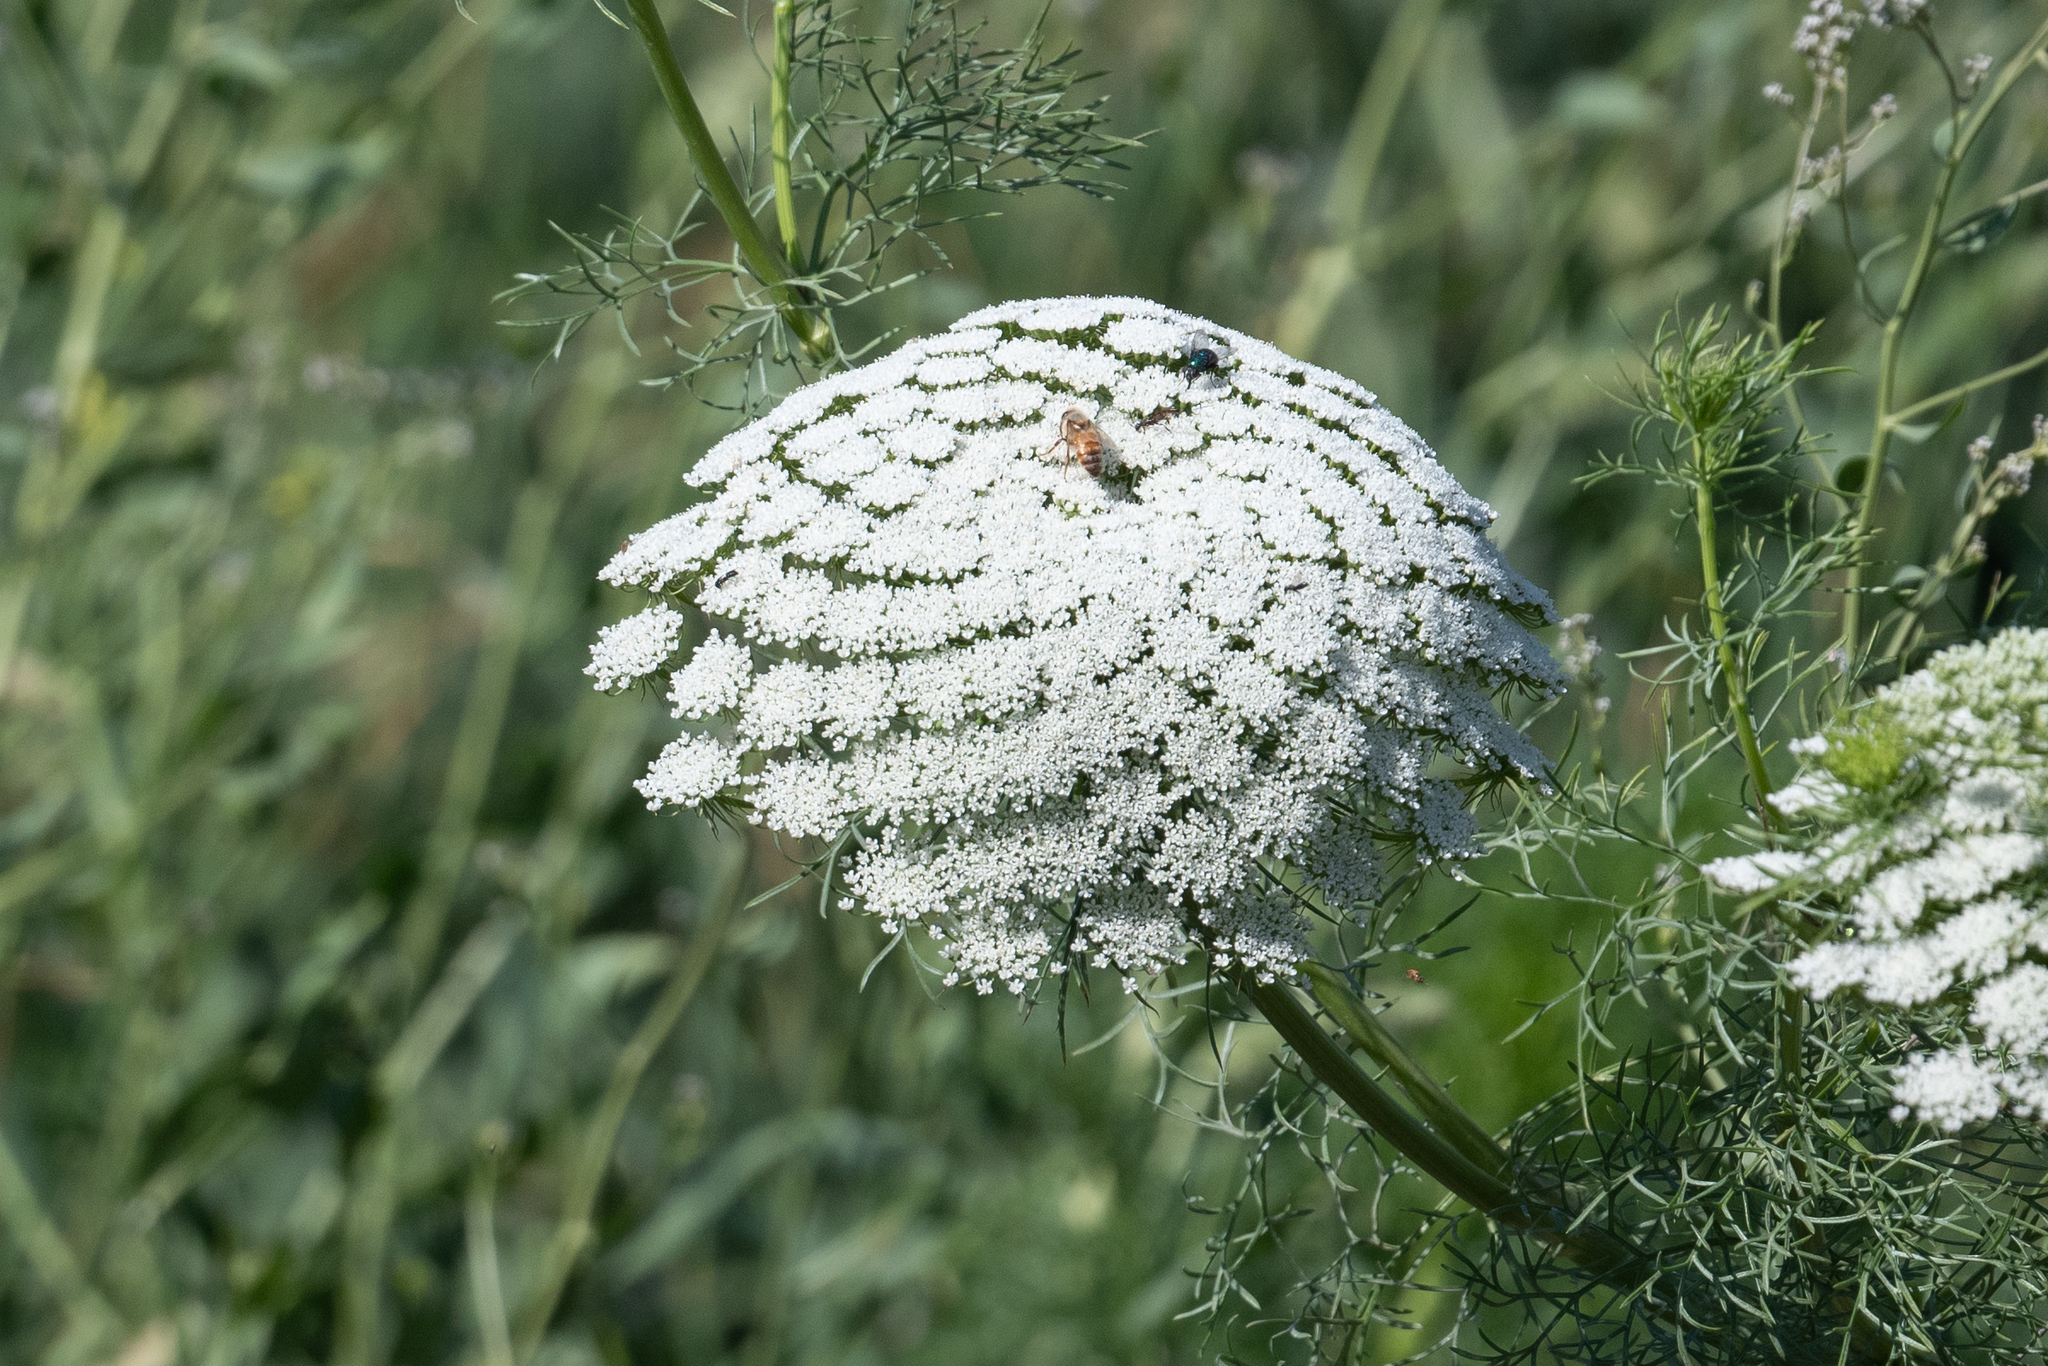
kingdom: Plantae
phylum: Tracheophyta
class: Magnoliopsida
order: Apiales
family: Apiaceae
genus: Visnaga
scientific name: Visnaga daucoides
